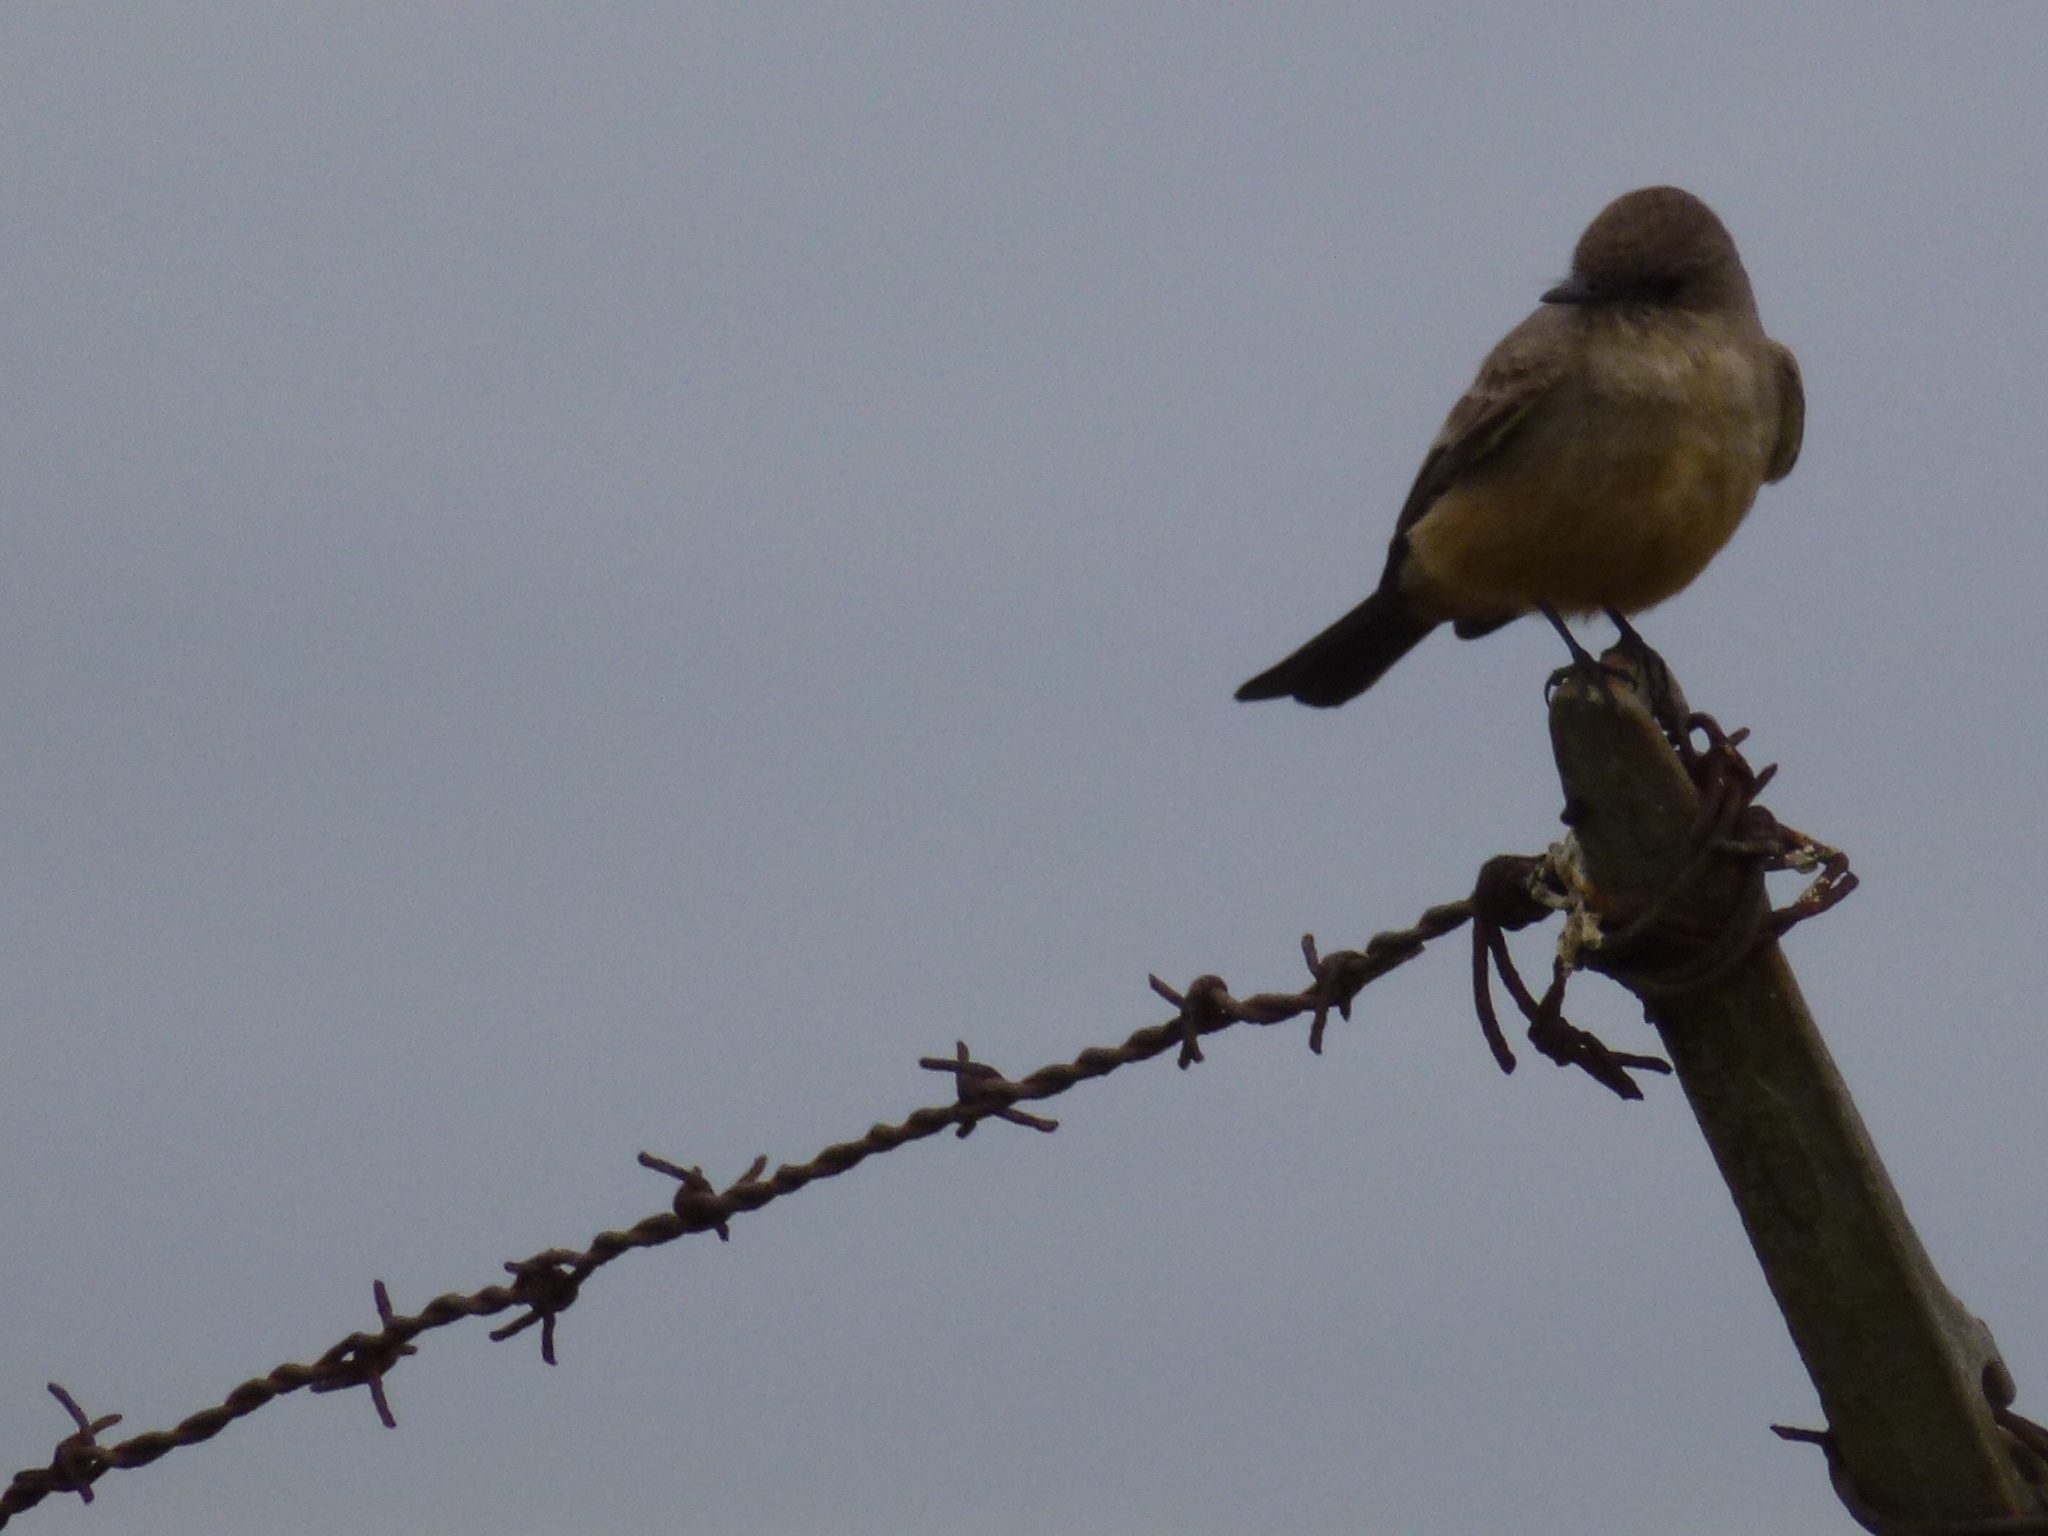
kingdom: Animalia
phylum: Chordata
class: Aves
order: Passeriformes
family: Tyrannidae
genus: Sayornis
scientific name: Sayornis saya
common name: Say's phoebe
